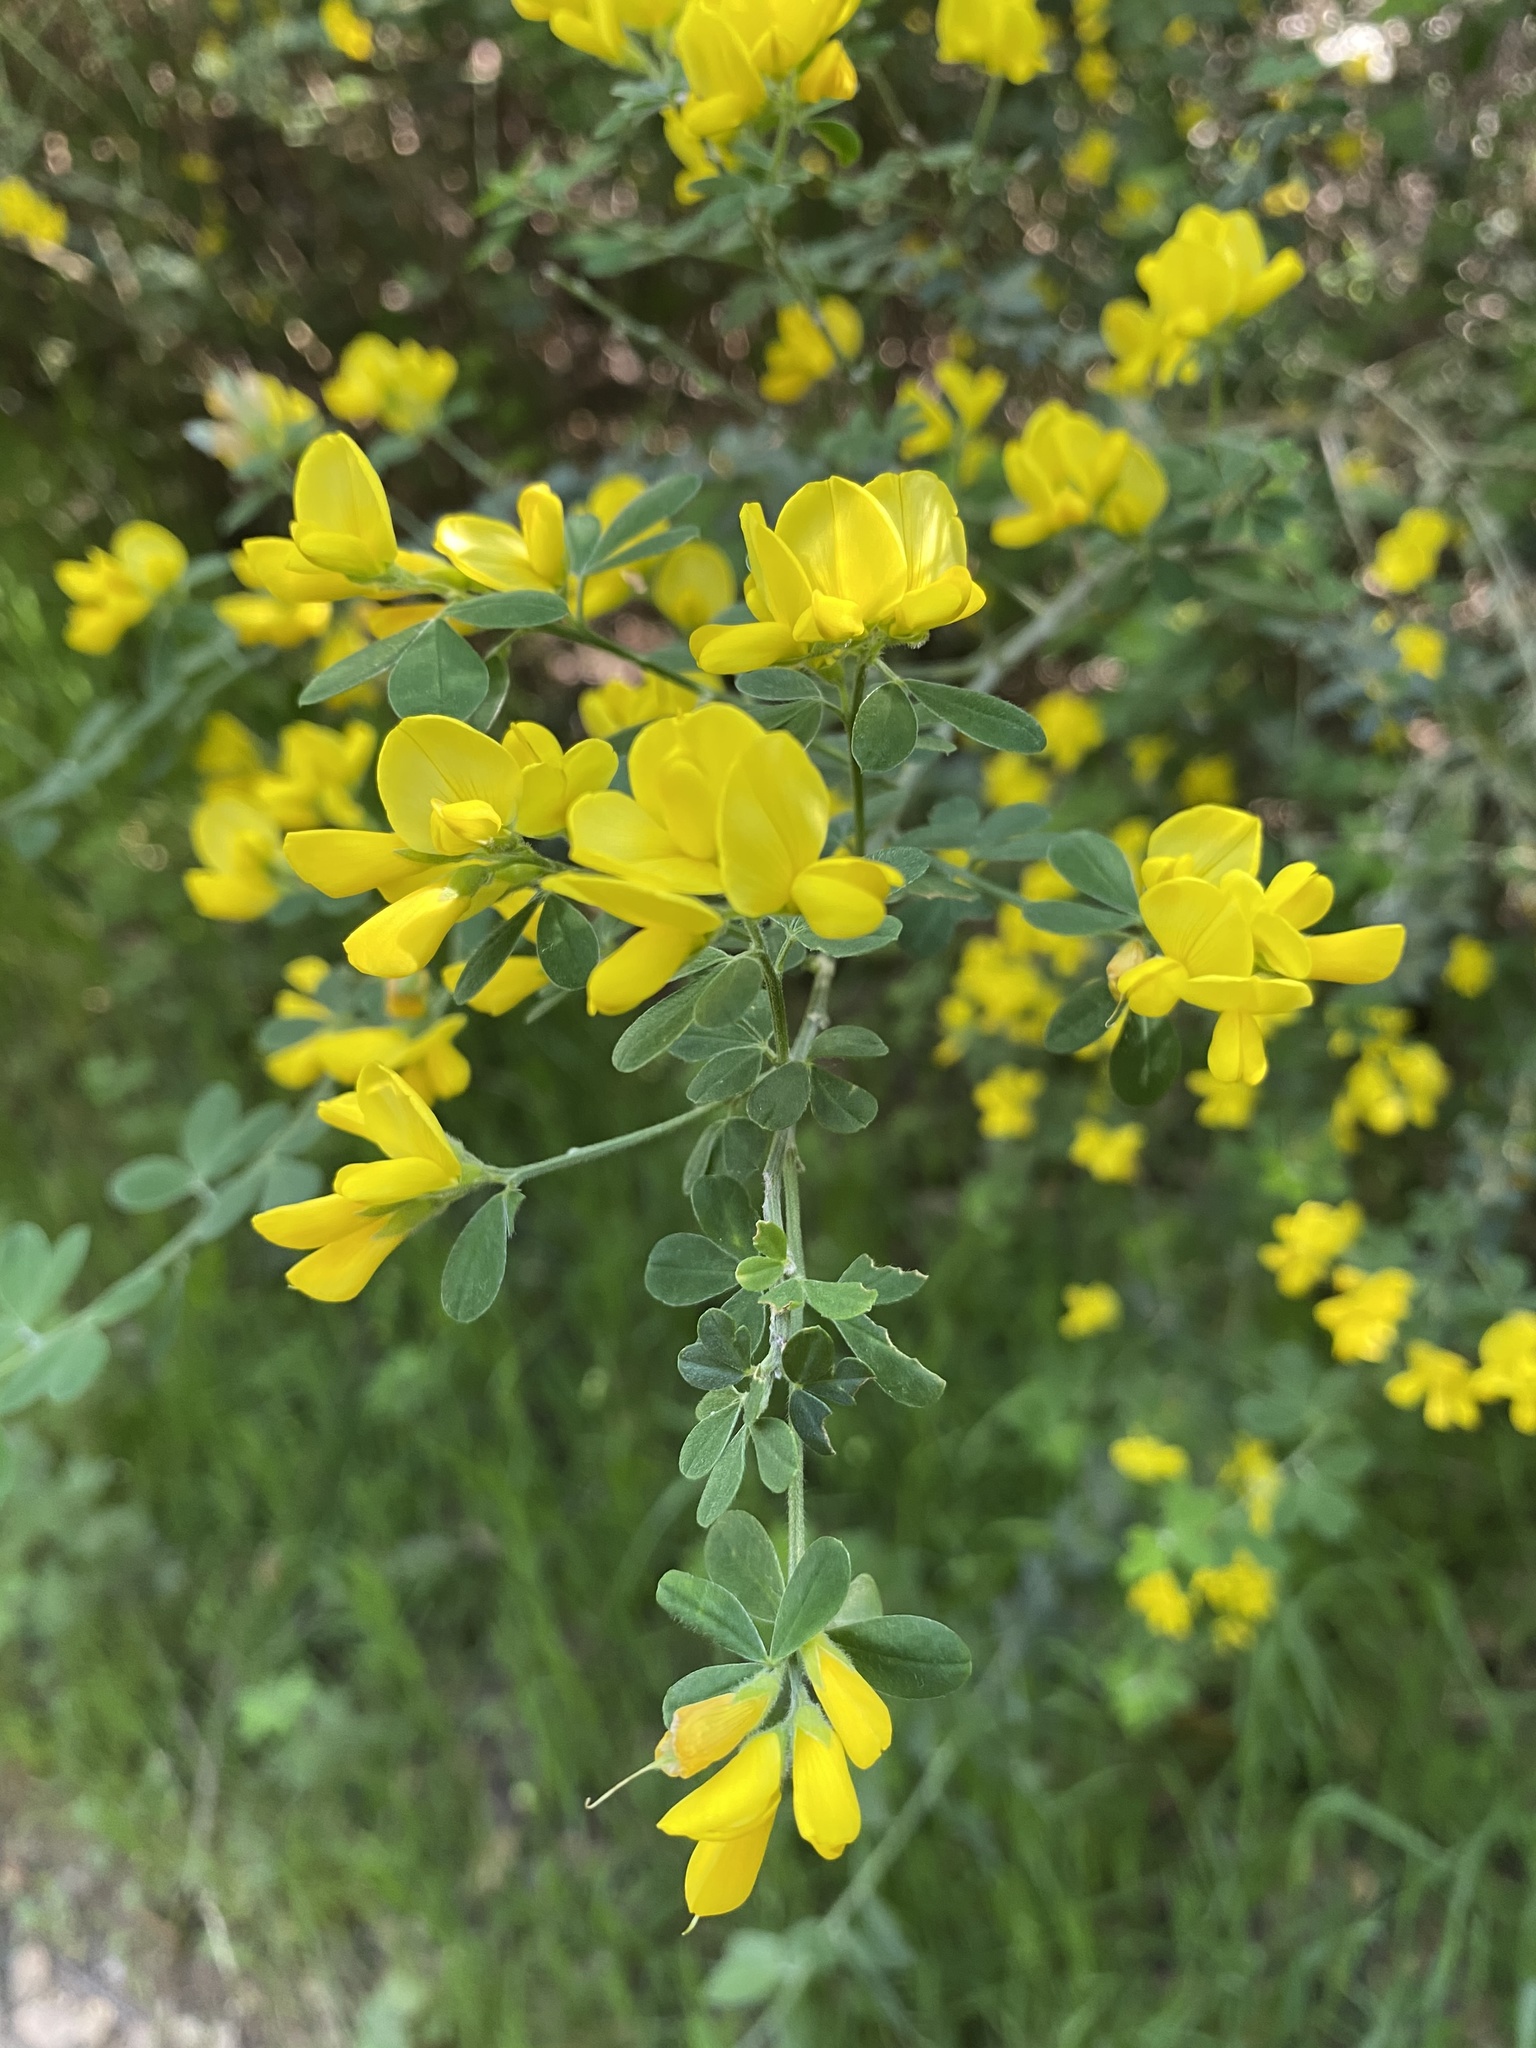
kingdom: Plantae
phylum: Tracheophyta
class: Magnoliopsida
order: Fabales
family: Fabaceae
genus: Genista
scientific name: Genista monspessulana
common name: Montpellier broom
